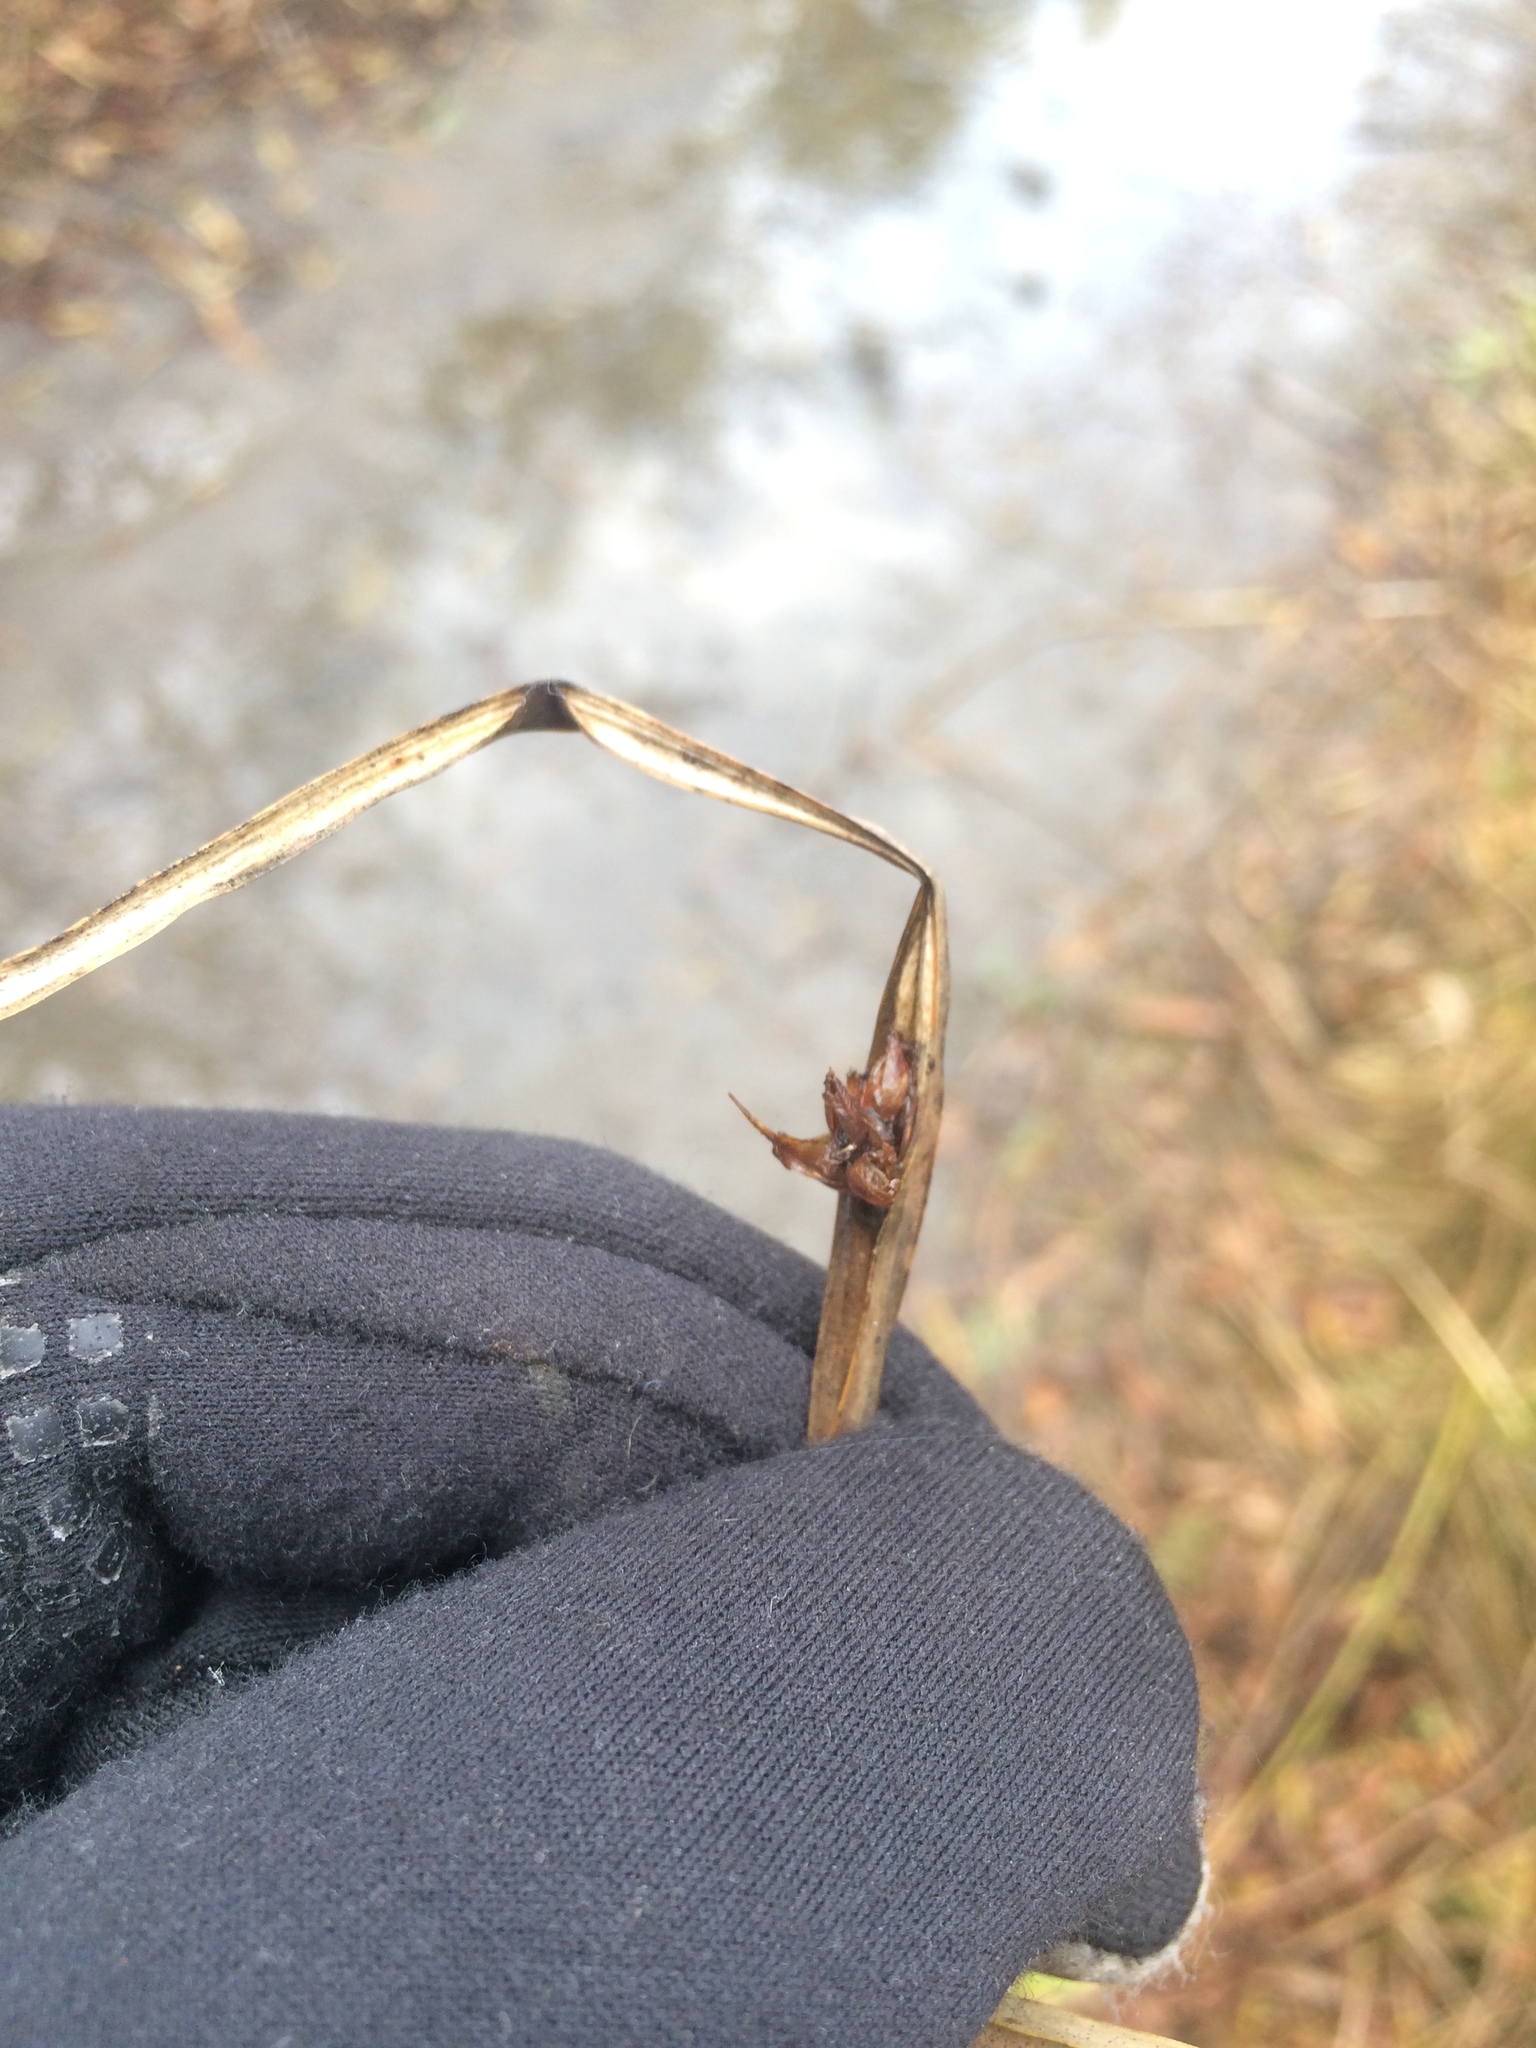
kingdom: Plantae
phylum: Tracheophyta
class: Liliopsida
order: Poales
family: Cyperaceae
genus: Schoenoplectus
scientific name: Schoenoplectus pungens
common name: Sharp club-rush
